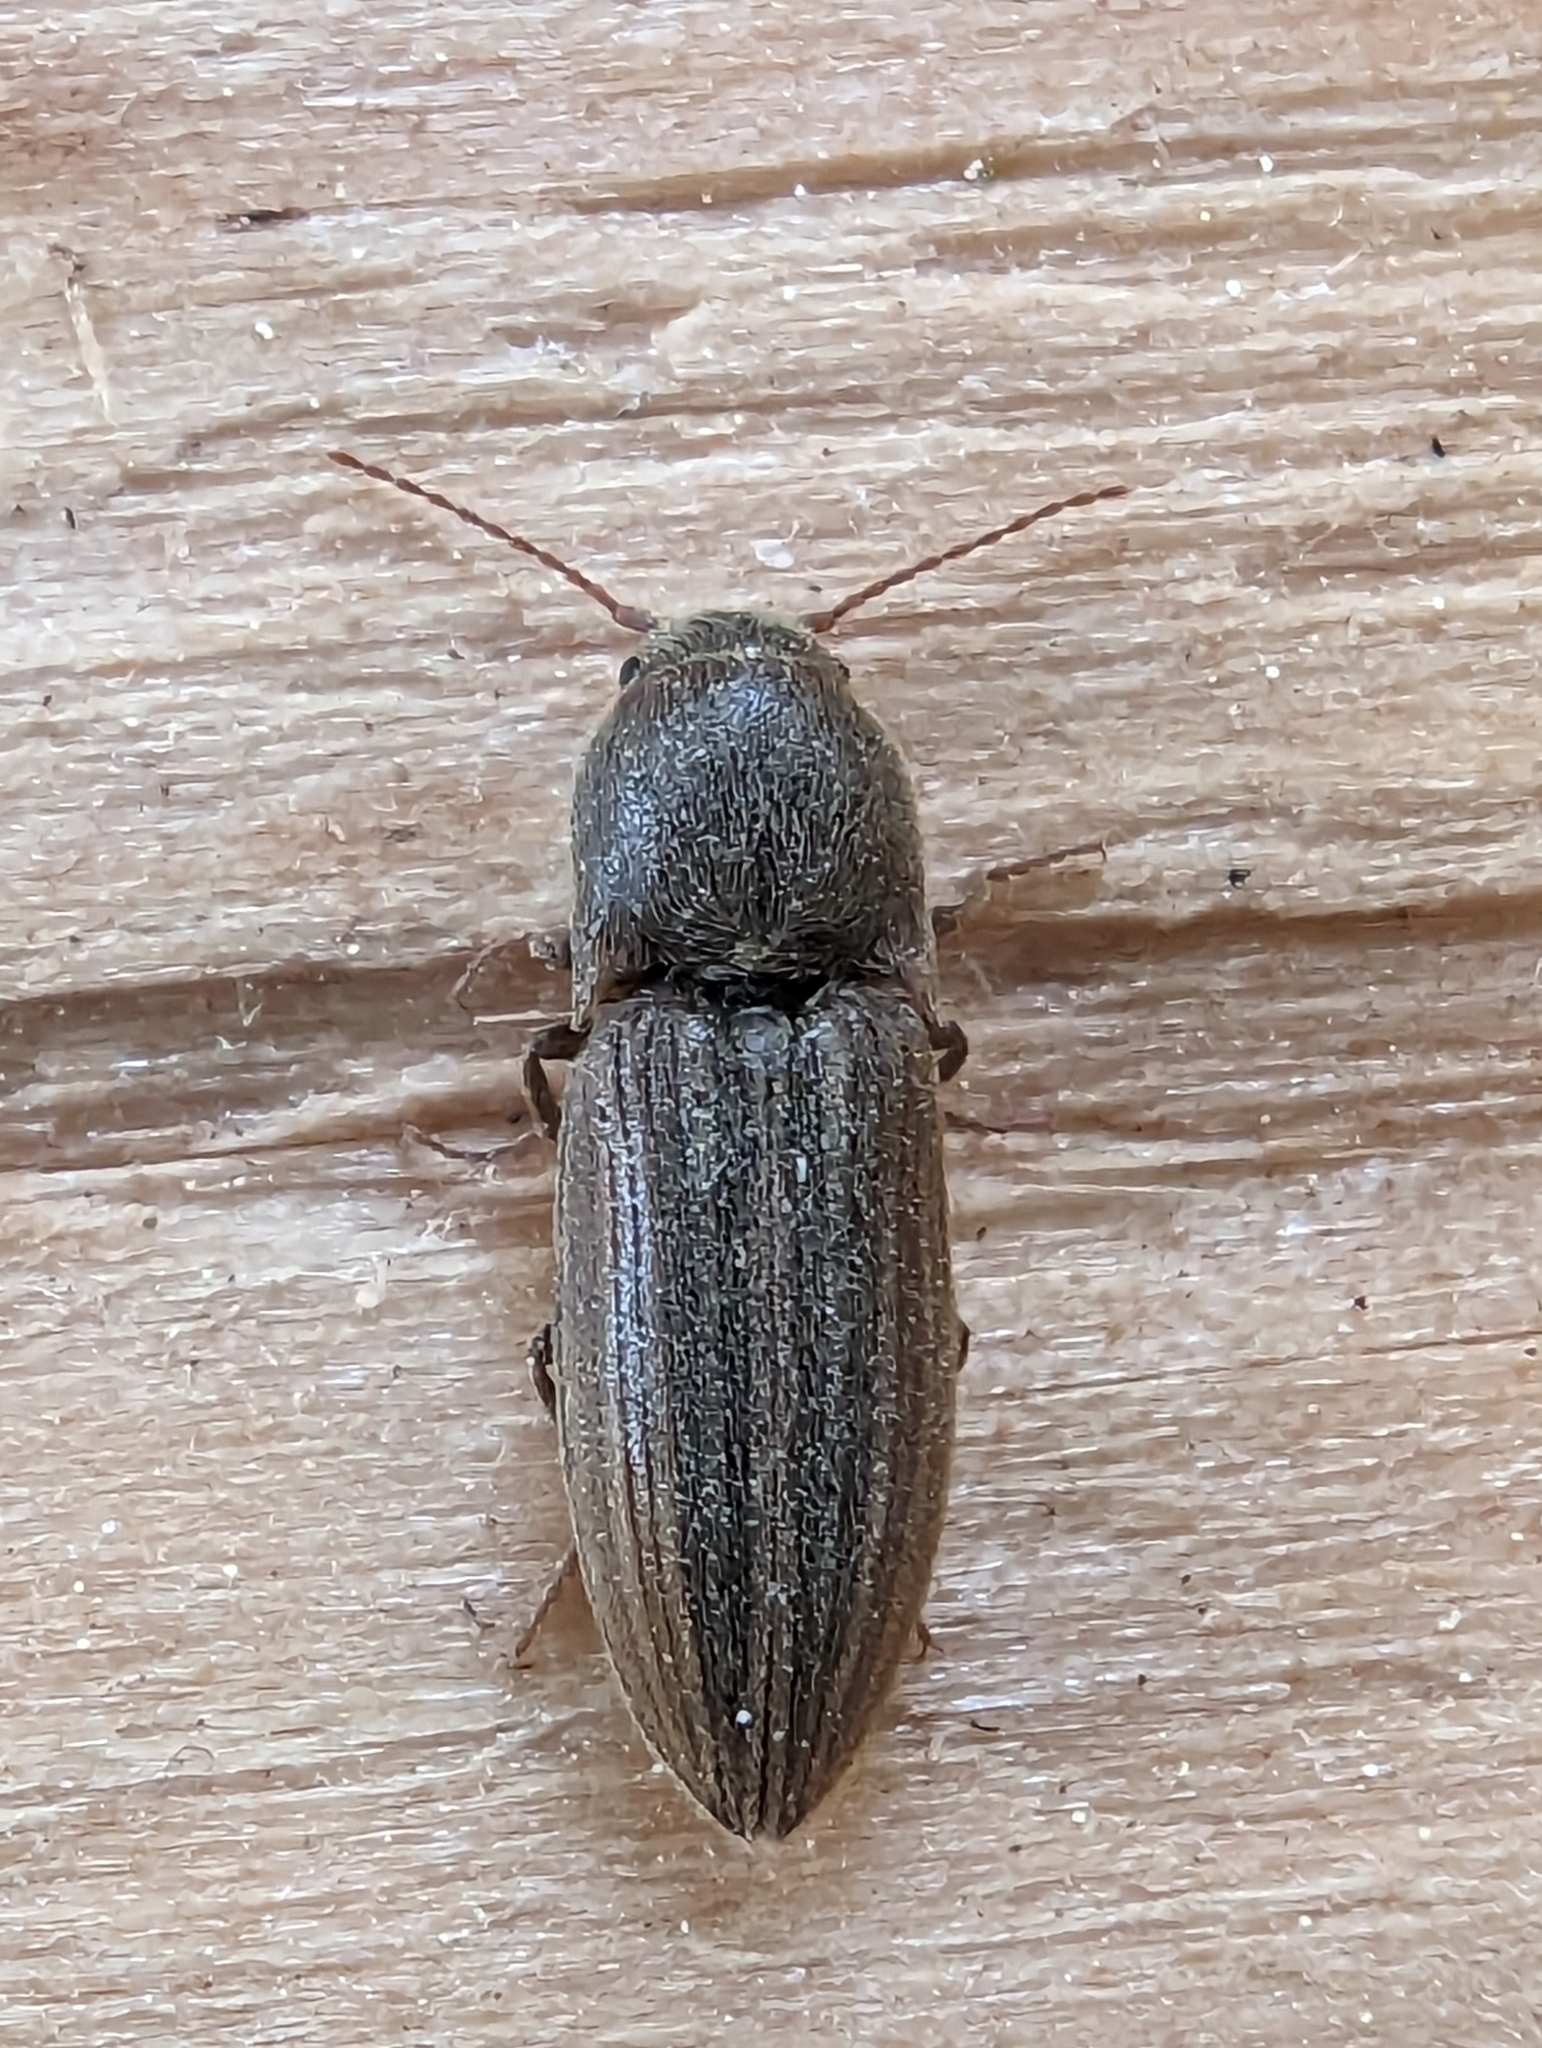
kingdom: Animalia
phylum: Arthropoda
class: Insecta
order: Coleoptera
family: Elateridae
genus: Agriotes
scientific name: Agriotes lineatus
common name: Lined click beetle
